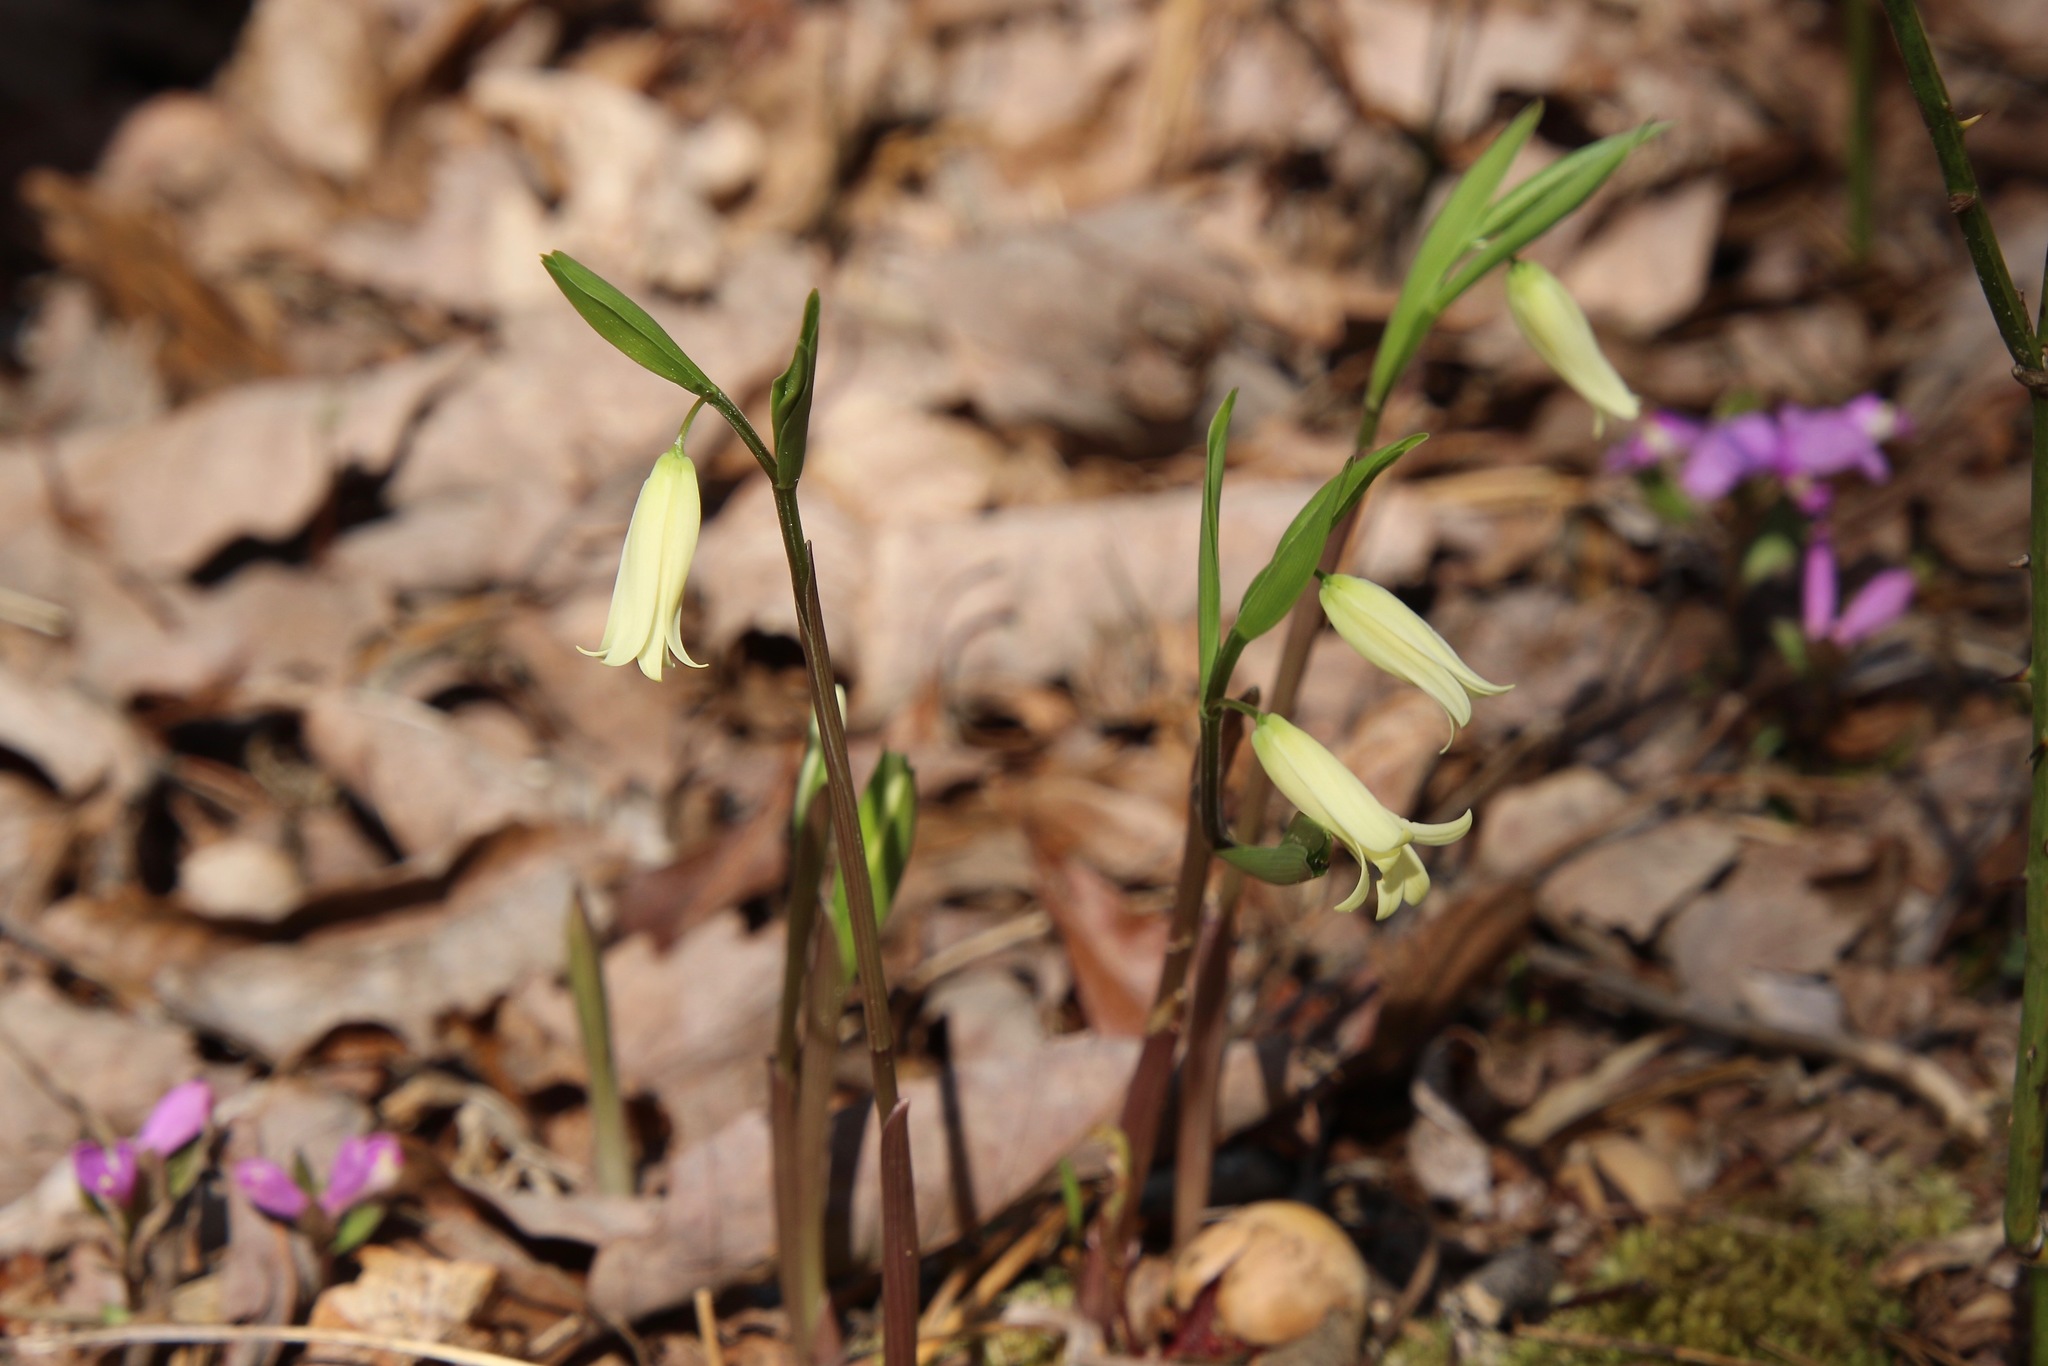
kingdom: Plantae
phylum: Tracheophyta
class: Liliopsida
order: Liliales
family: Colchicaceae
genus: Uvularia
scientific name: Uvularia puberula
